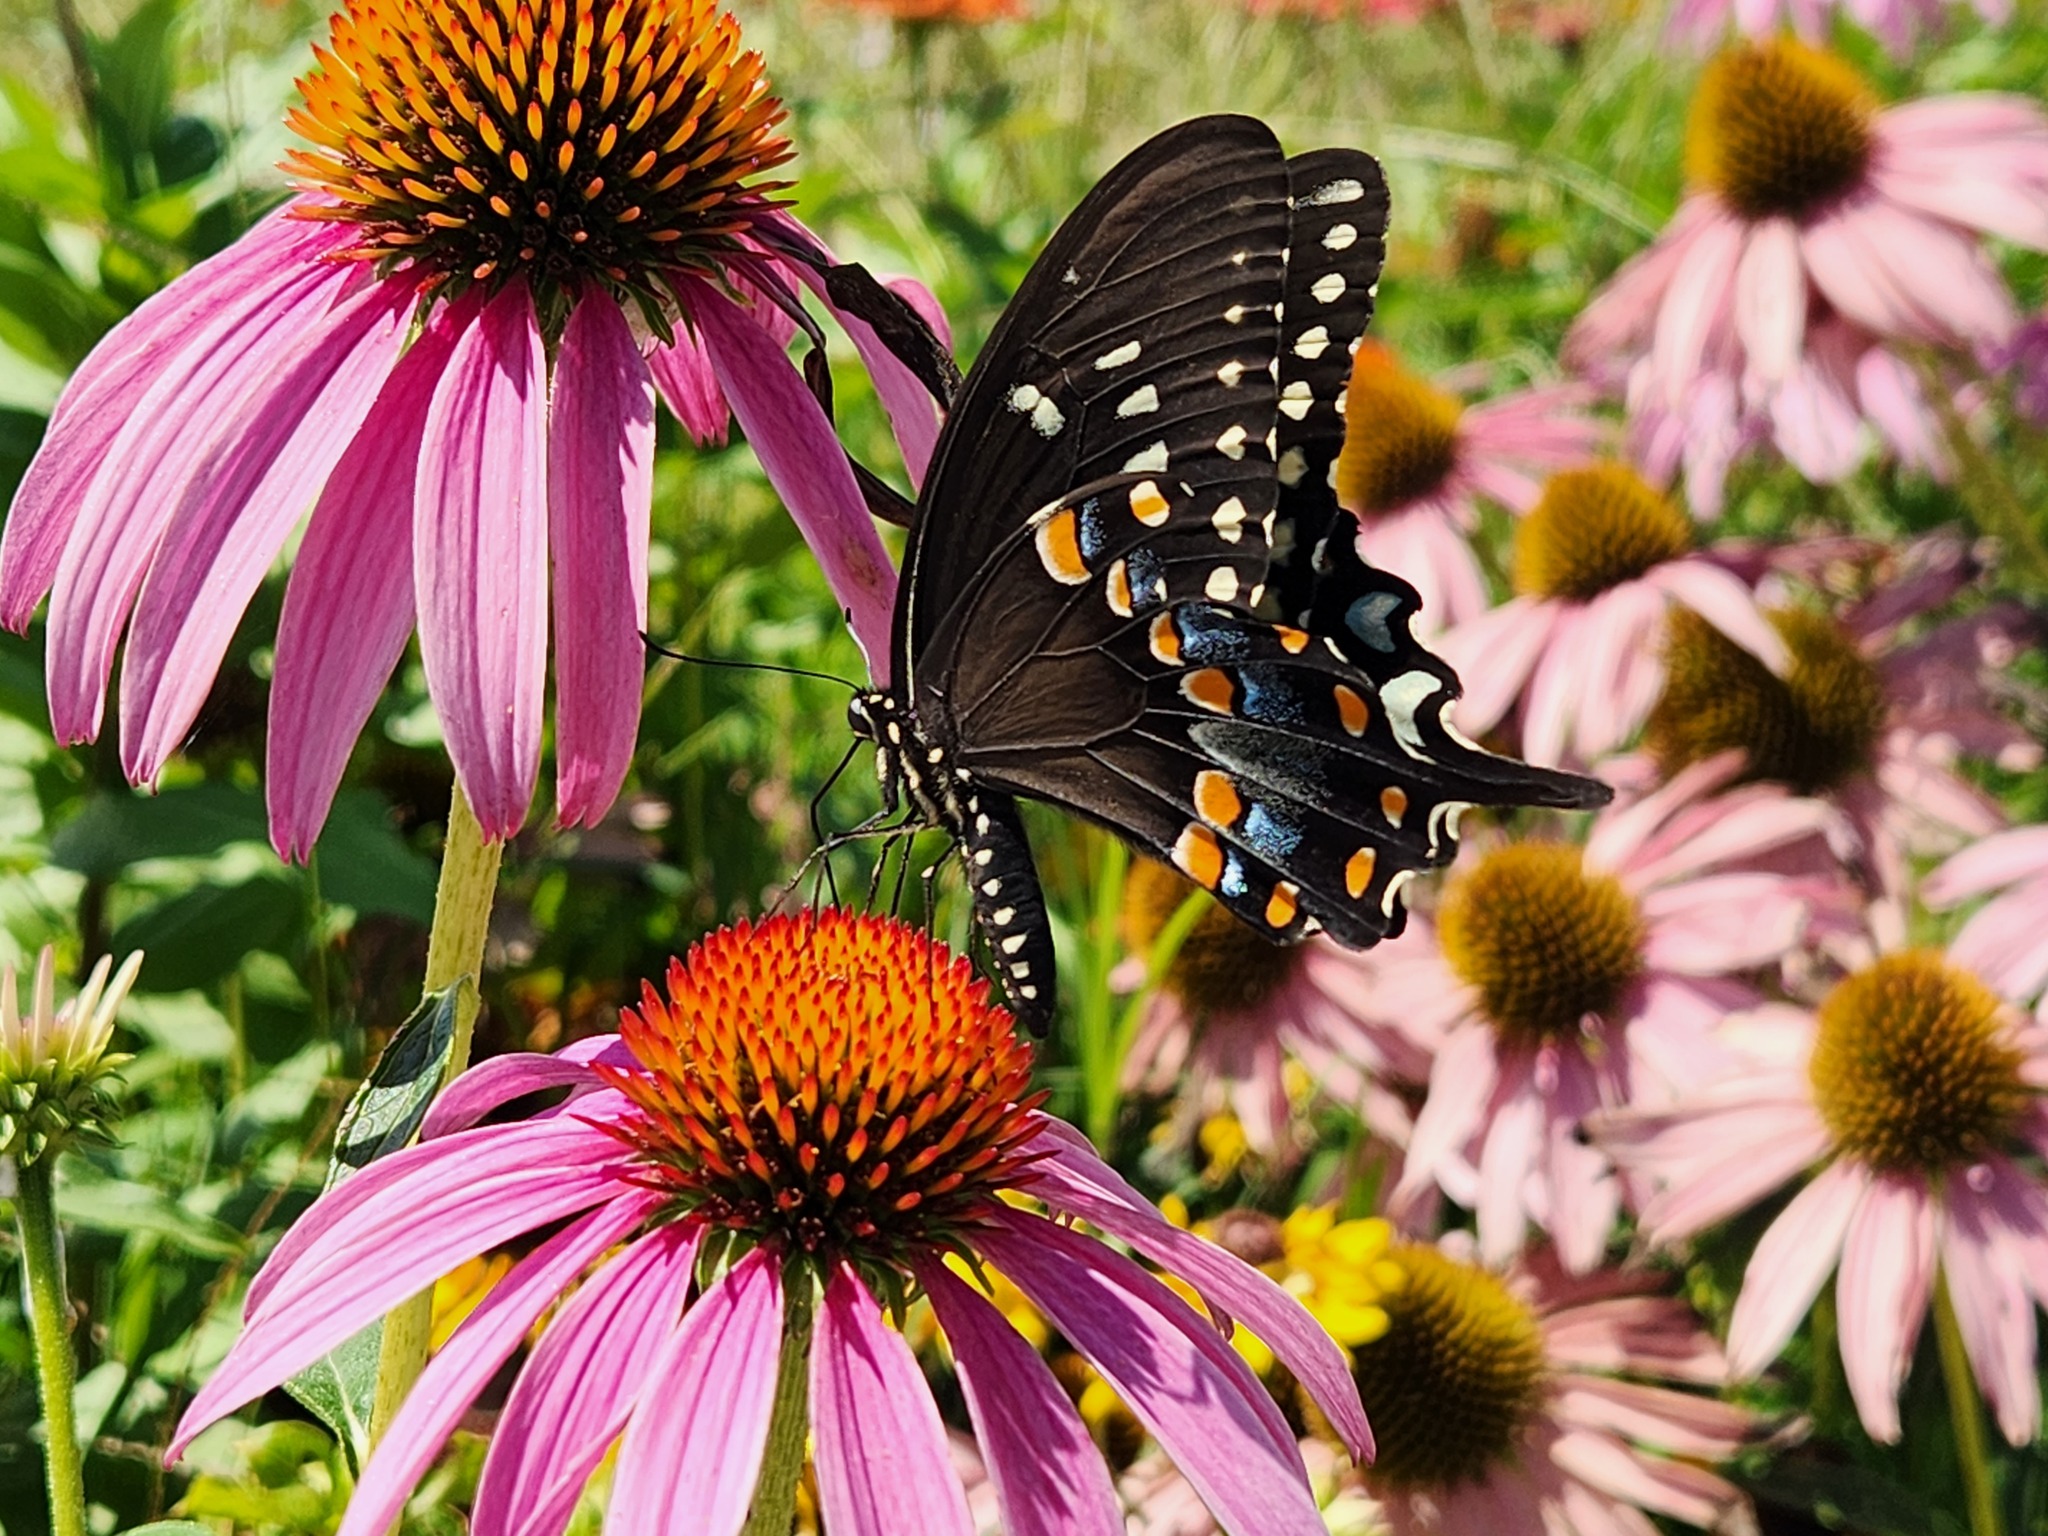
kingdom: Animalia
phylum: Arthropoda
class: Insecta
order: Lepidoptera
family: Papilionidae
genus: Papilio
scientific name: Papilio troilus
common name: Spicebush swallowtail
